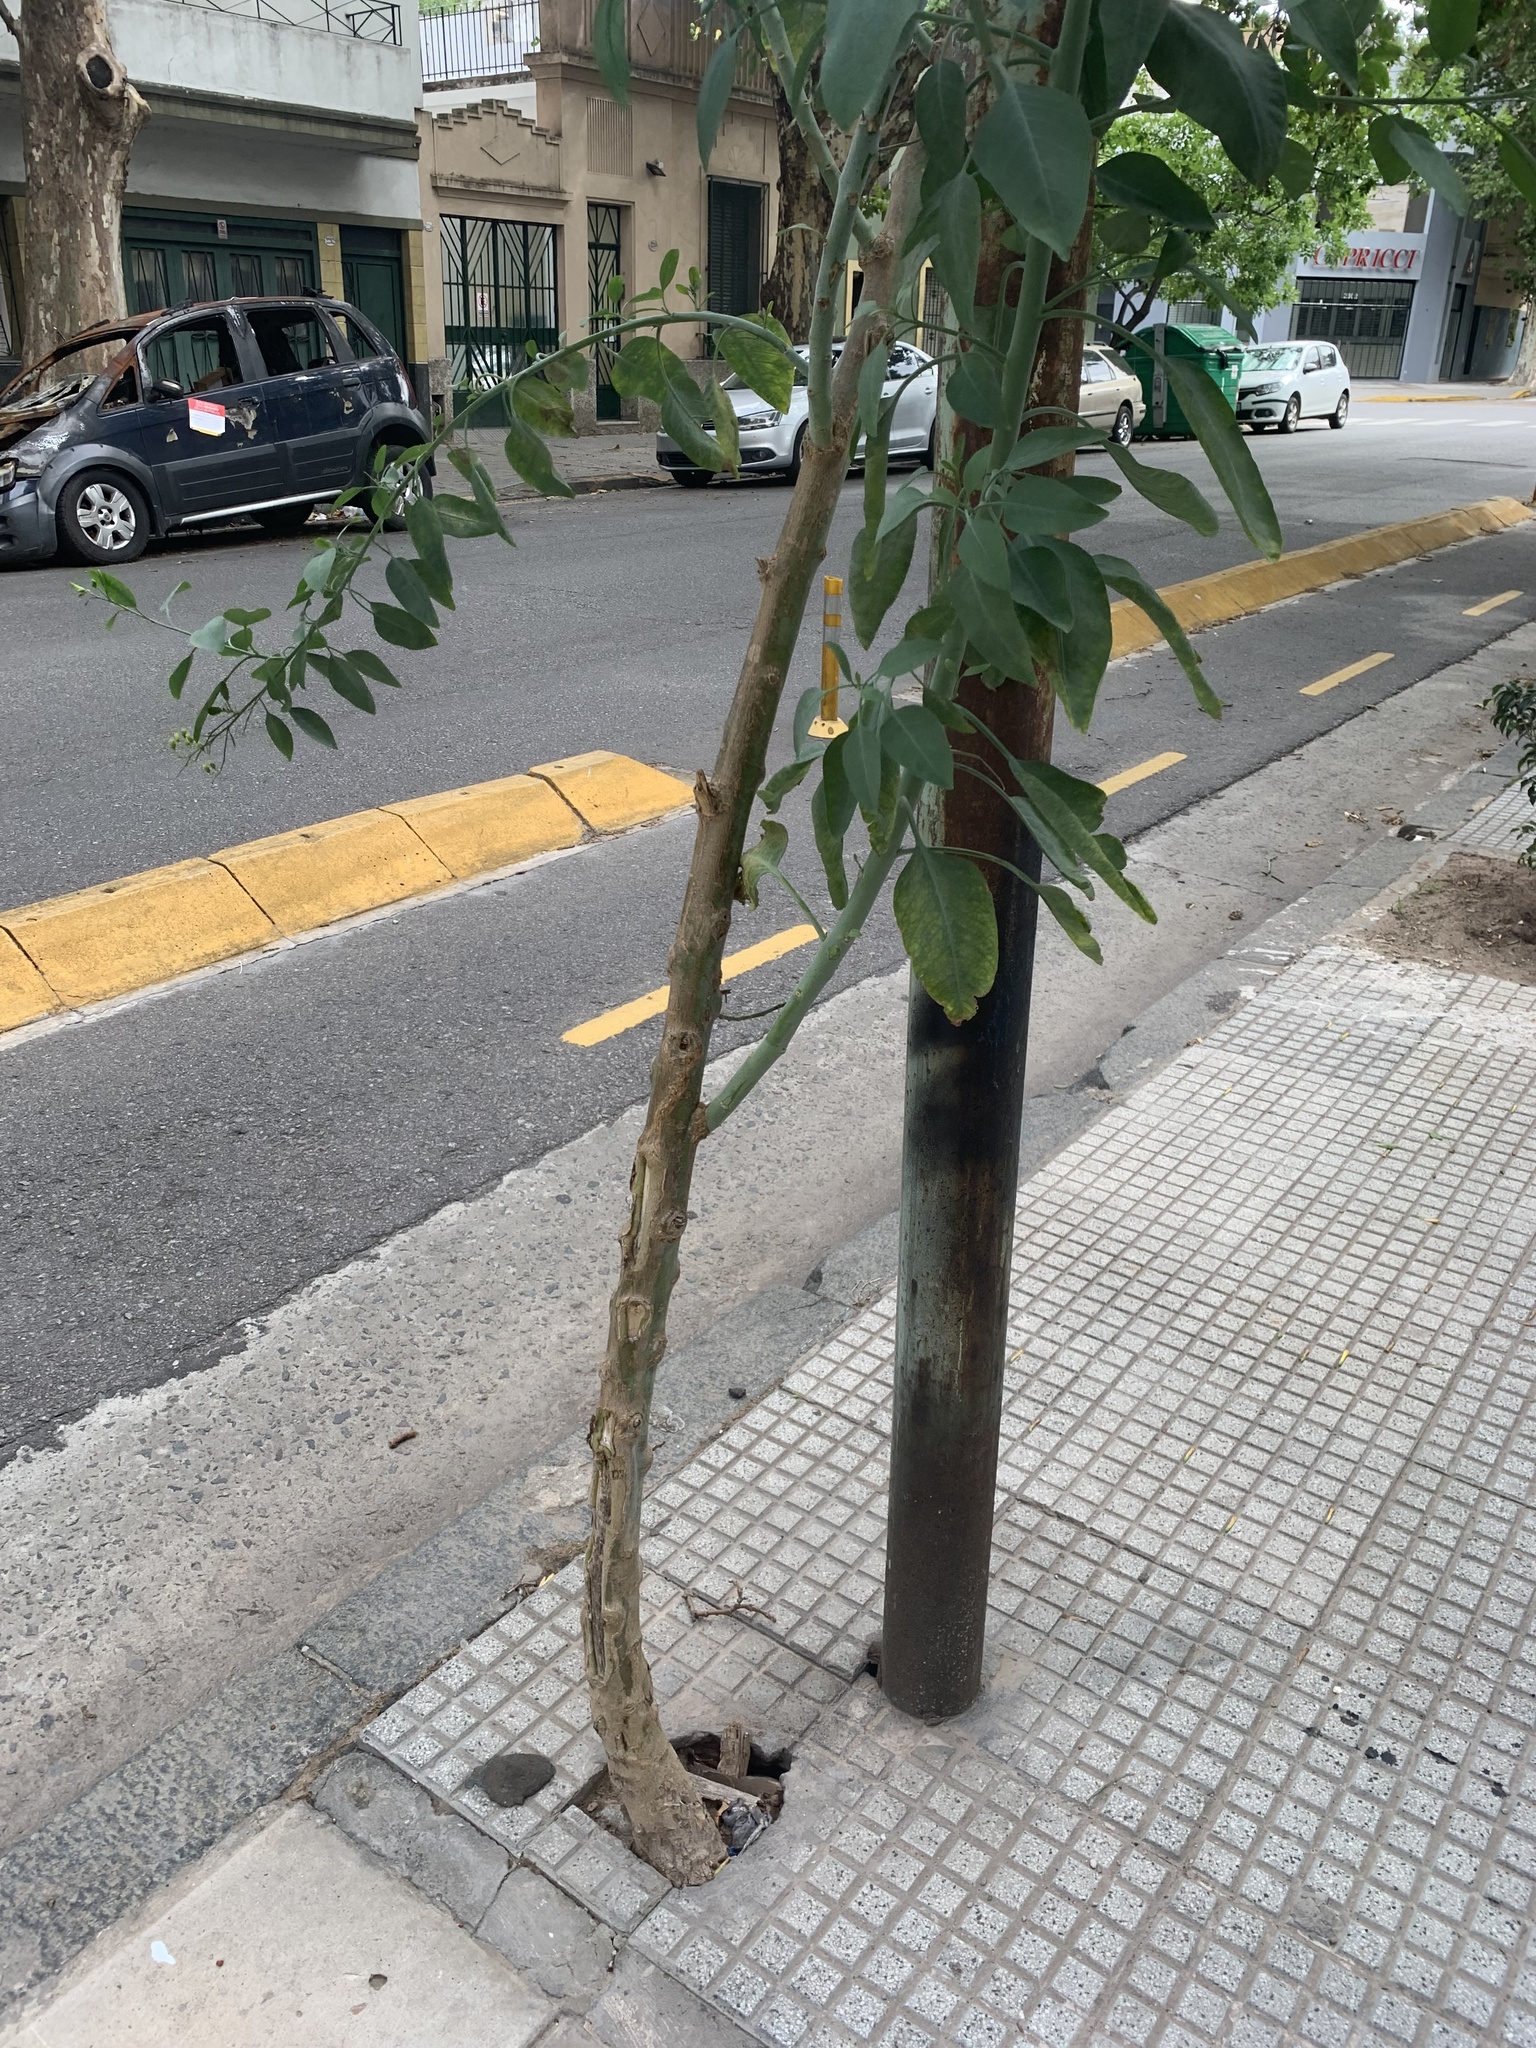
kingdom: Plantae
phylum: Tracheophyta
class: Magnoliopsida
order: Solanales
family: Solanaceae
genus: Nicotiana
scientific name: Nicotiana glauca
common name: Tree tobacco
